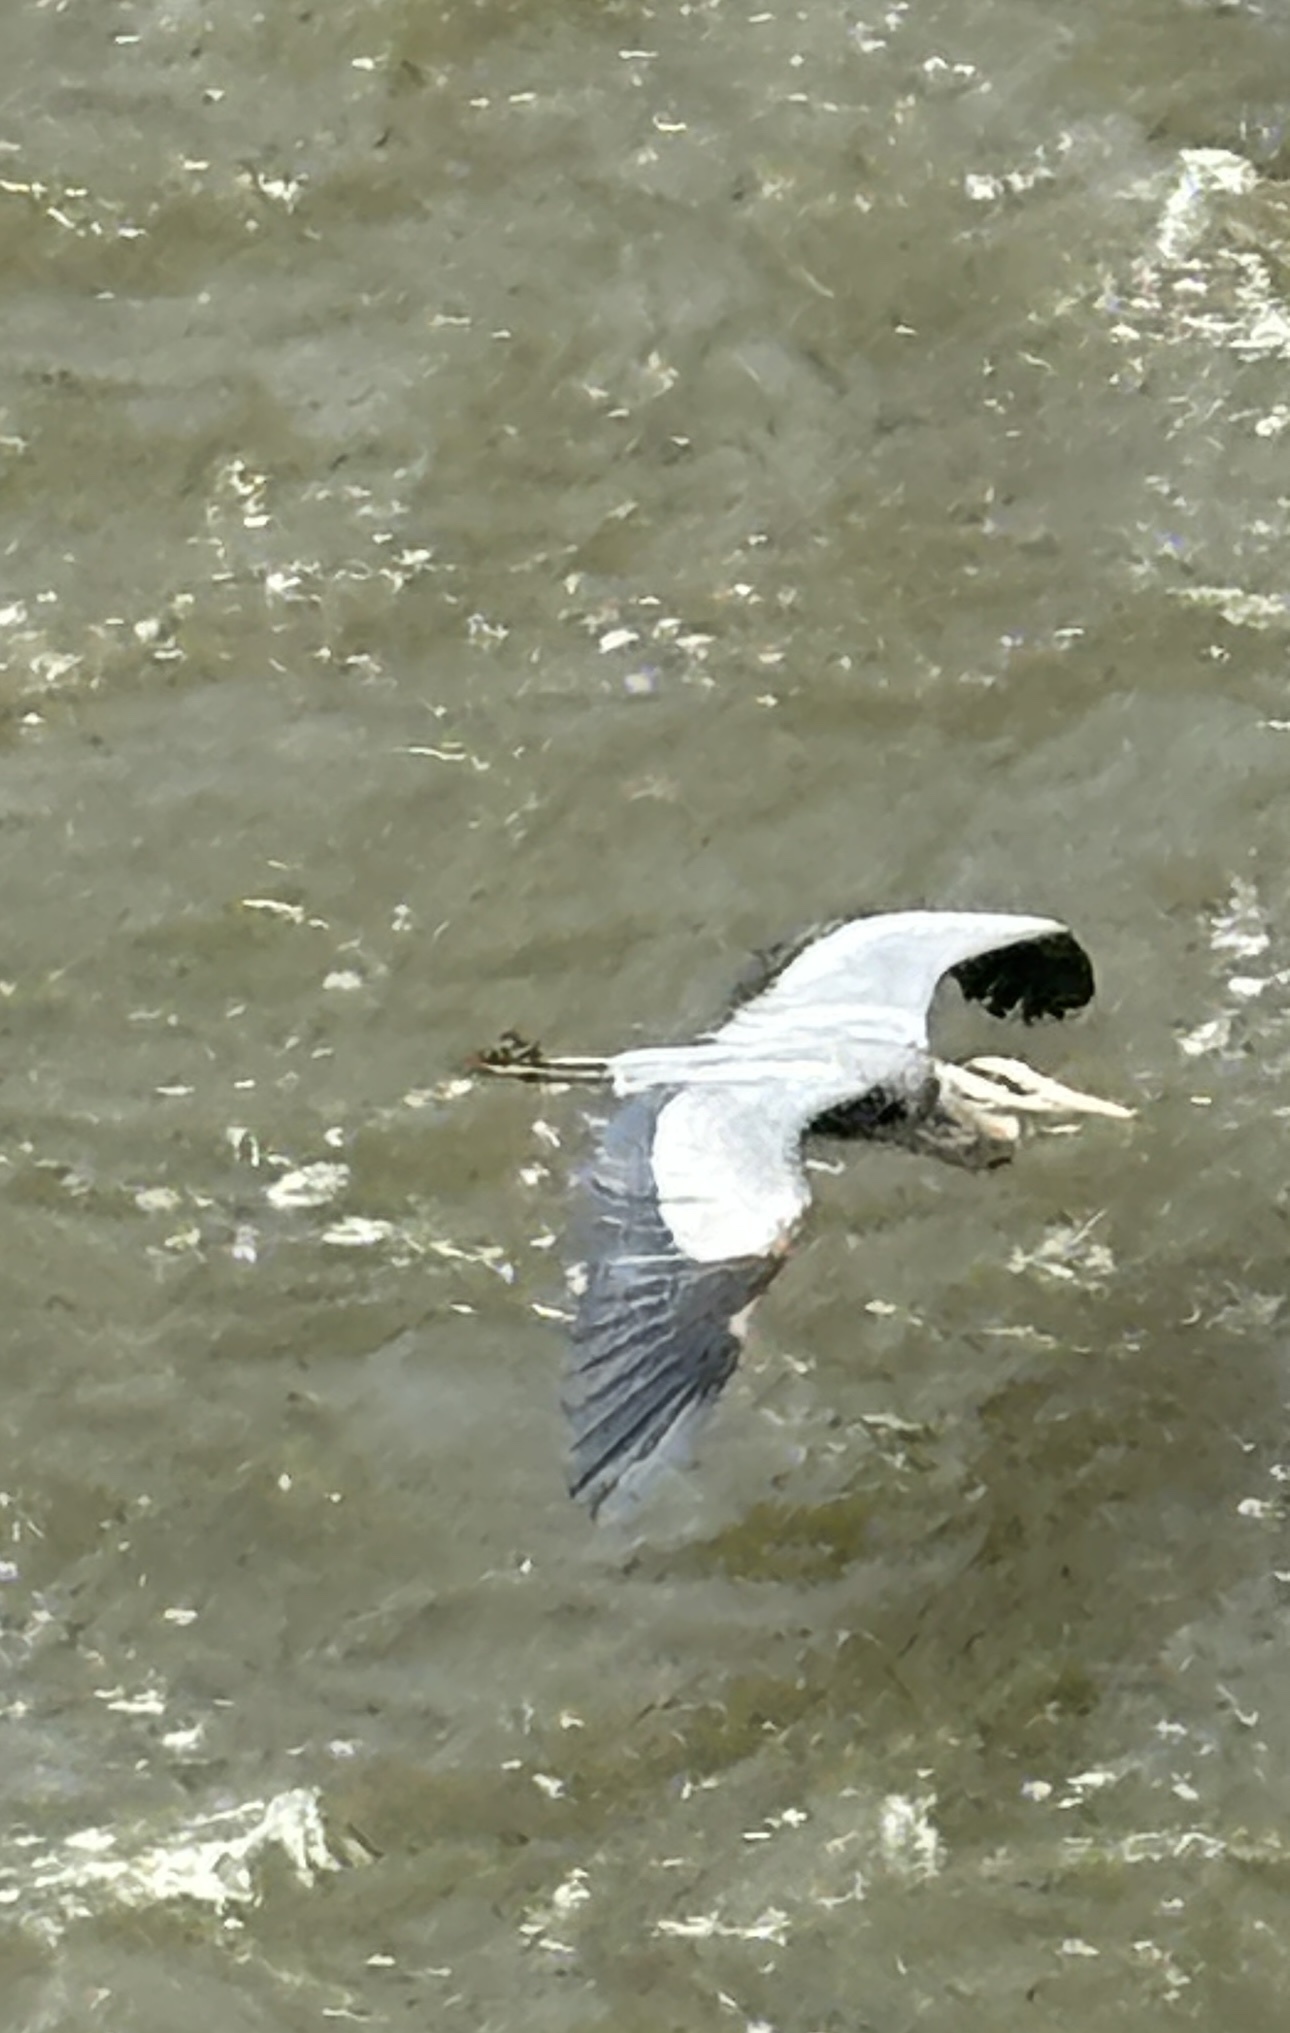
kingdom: Animalia
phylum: Chordata
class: Aves
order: Pelecaniformes
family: Ardeidae
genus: Ardea
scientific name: Ardea herodias
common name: Great blue heron
